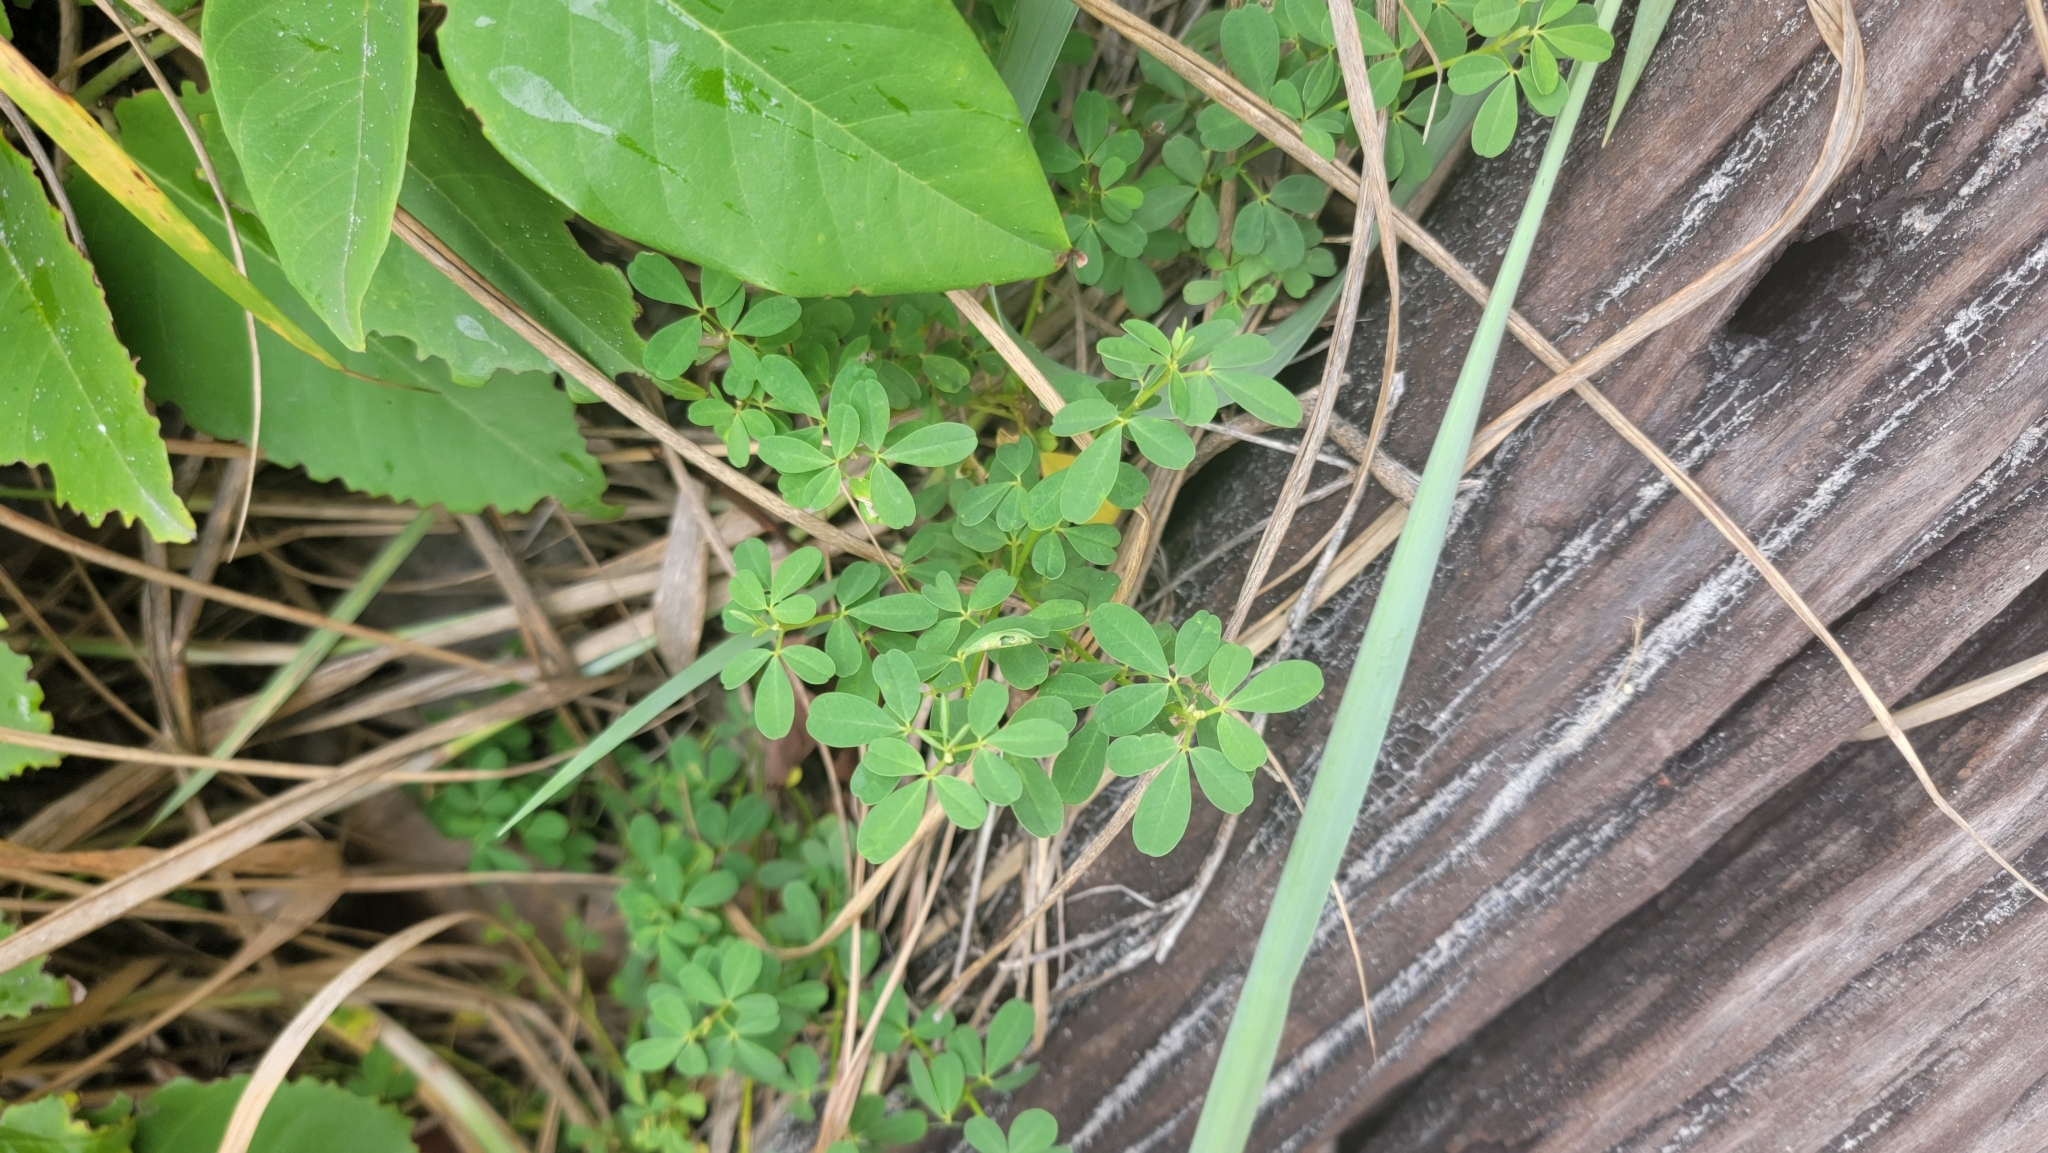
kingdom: Plantae
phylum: Tracheophyta
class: Magnoliopsida
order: Fabales
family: Fabaceae
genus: Crotalaria
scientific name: Crotalaria pumila
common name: Low rattlebox
